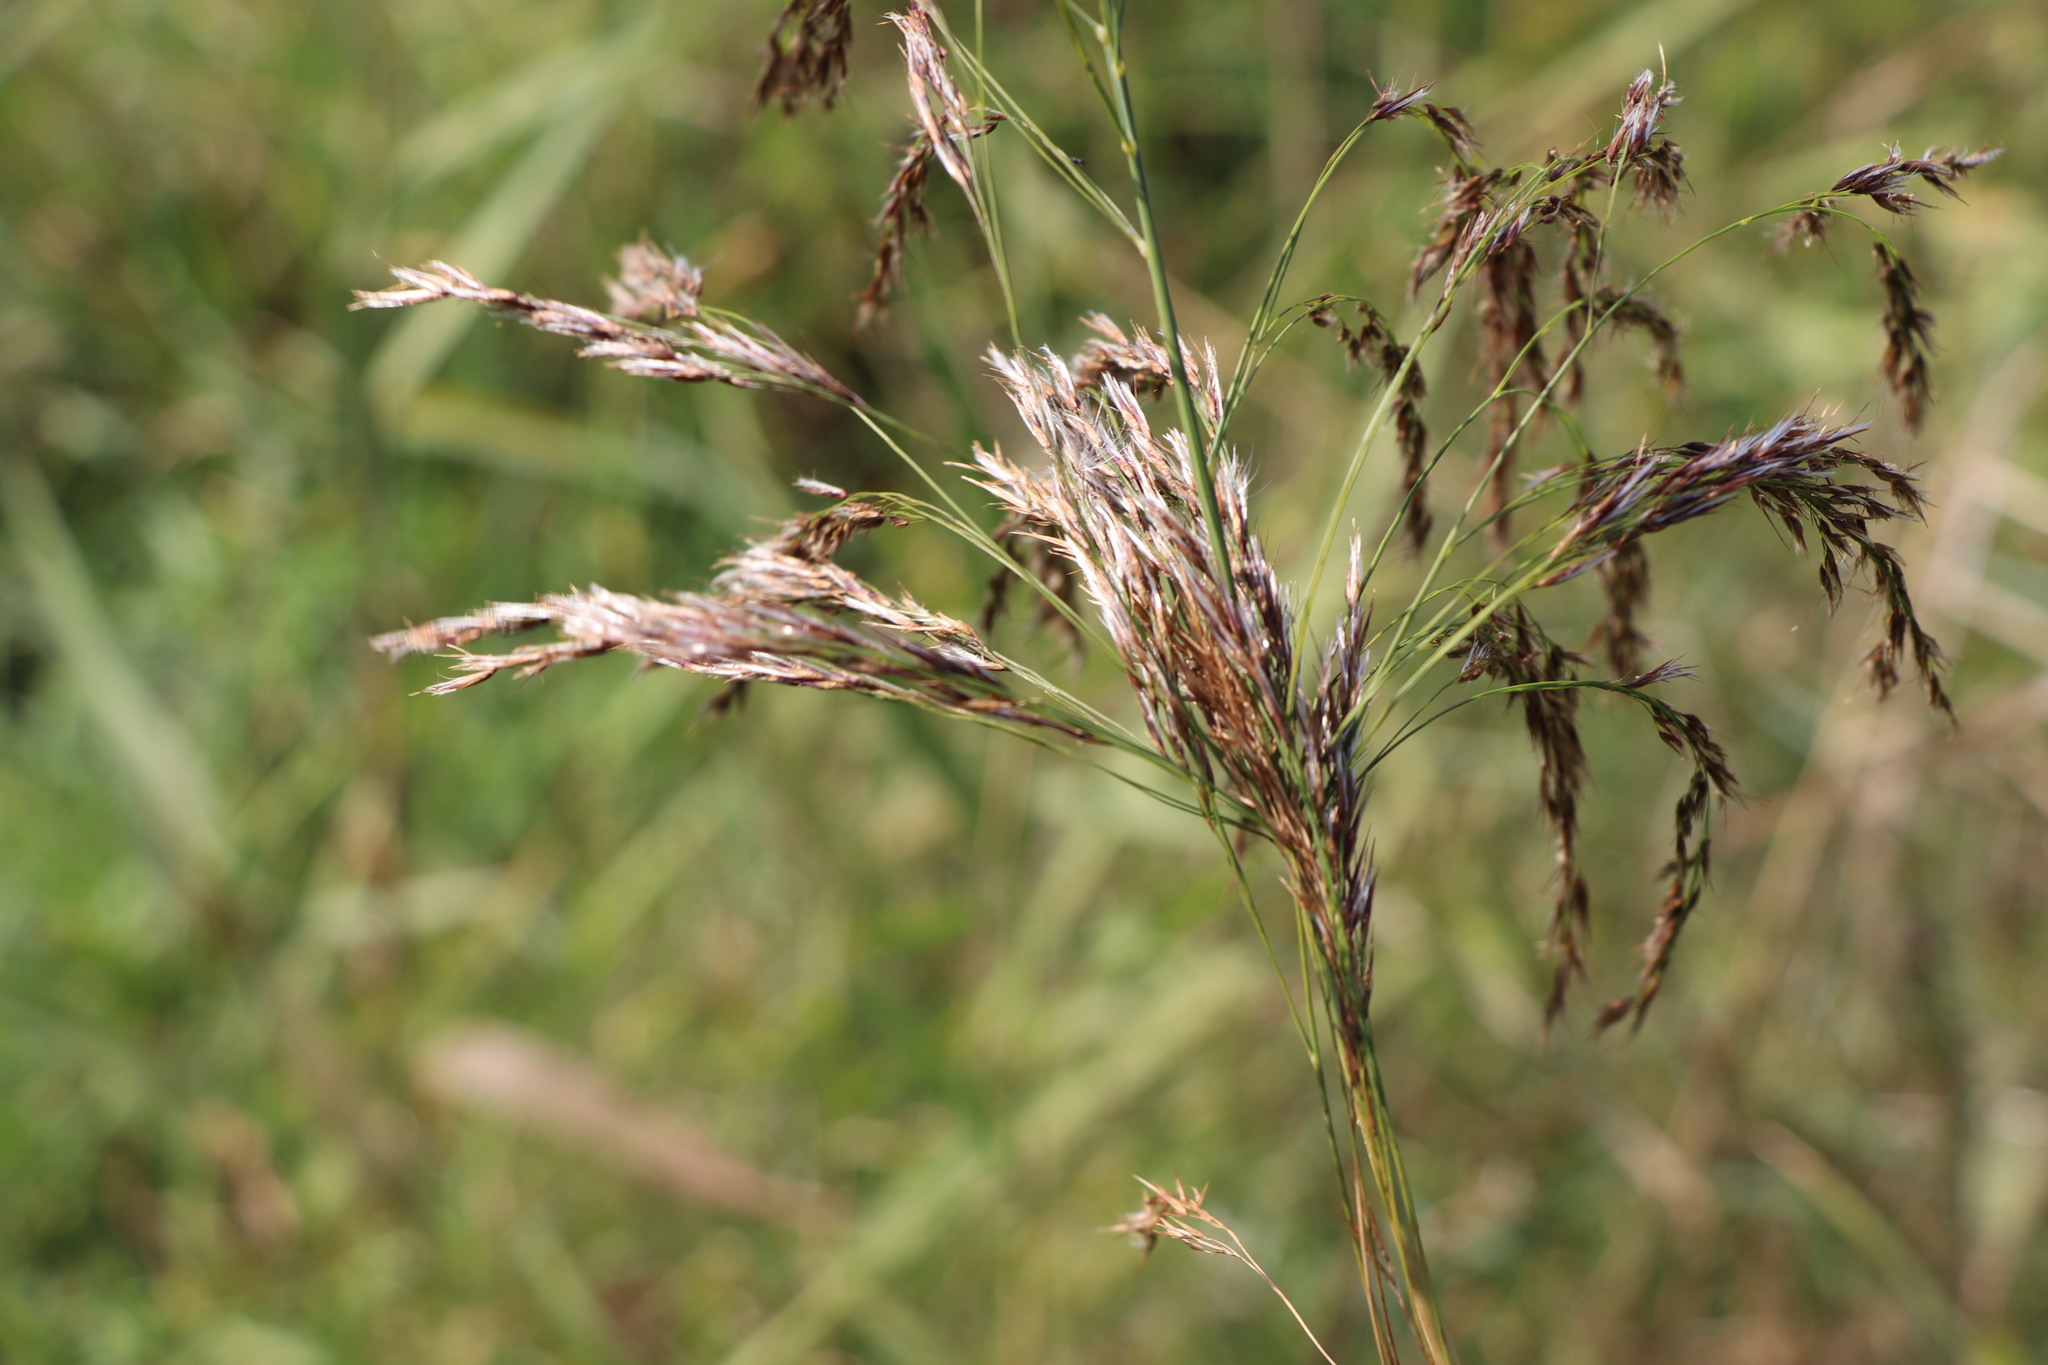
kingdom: Plantae
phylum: Tracheophyta
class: Liliopsida
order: Poales
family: Poaceae
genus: Phragmites
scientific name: Phragmites australis
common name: Common reed
